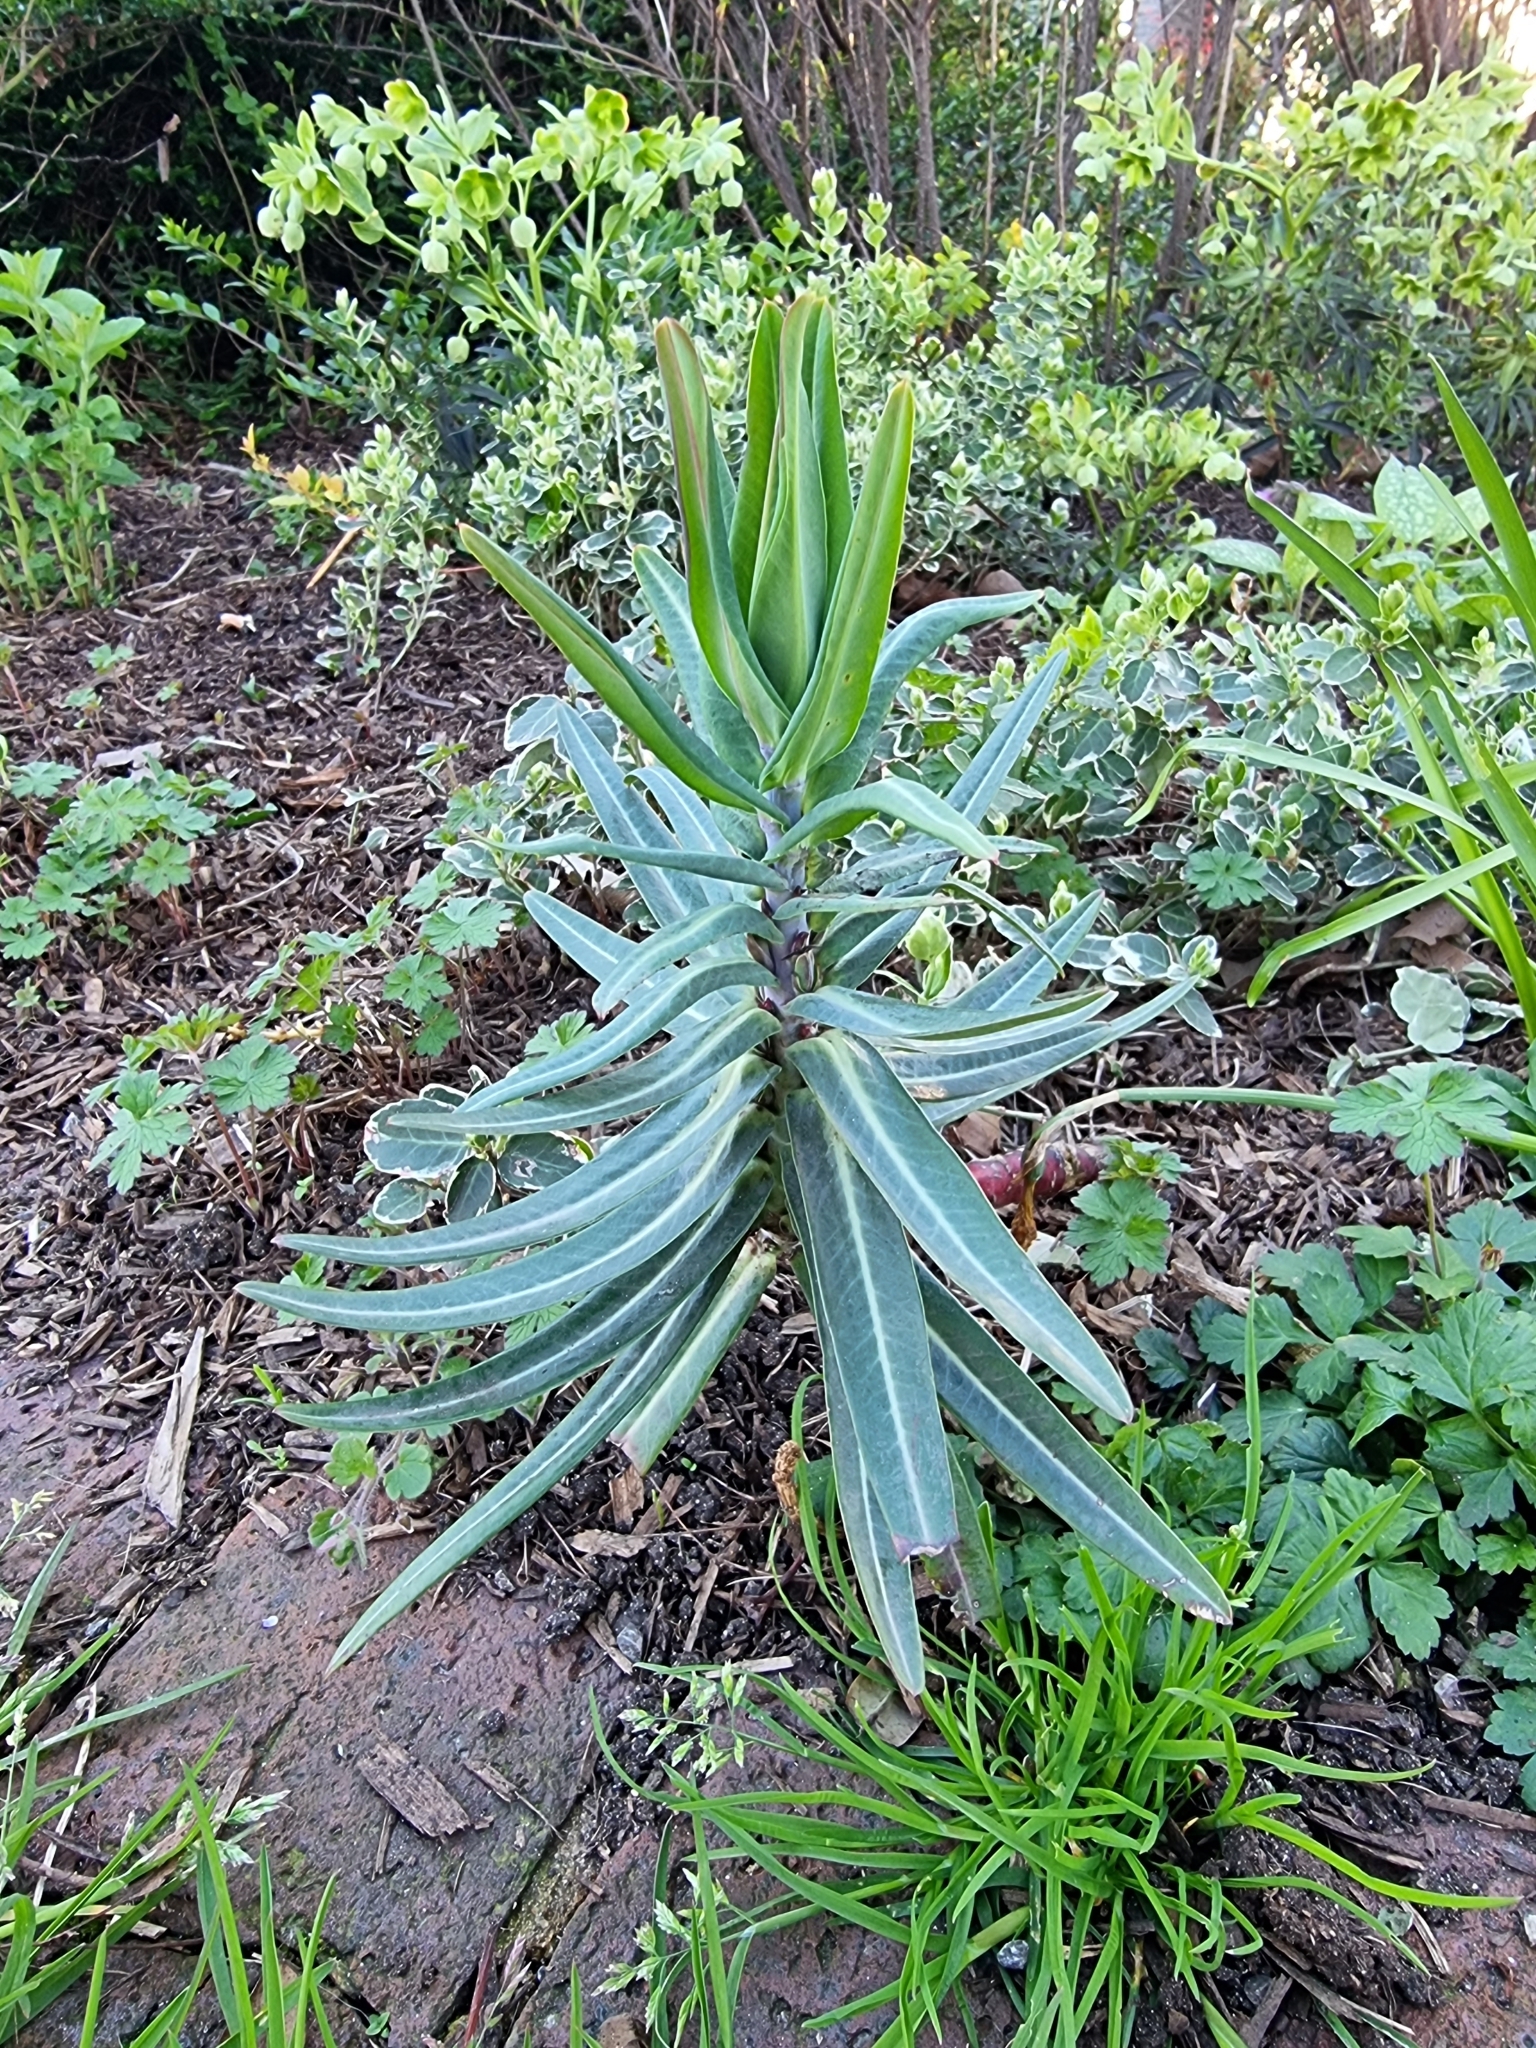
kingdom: Plantae
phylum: Tracheophyta
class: Magnoliopsida
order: Malpighiales
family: Euphorbiaceae
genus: Euphorbia
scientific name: Euphorbia lathyris
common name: Caper spurge
